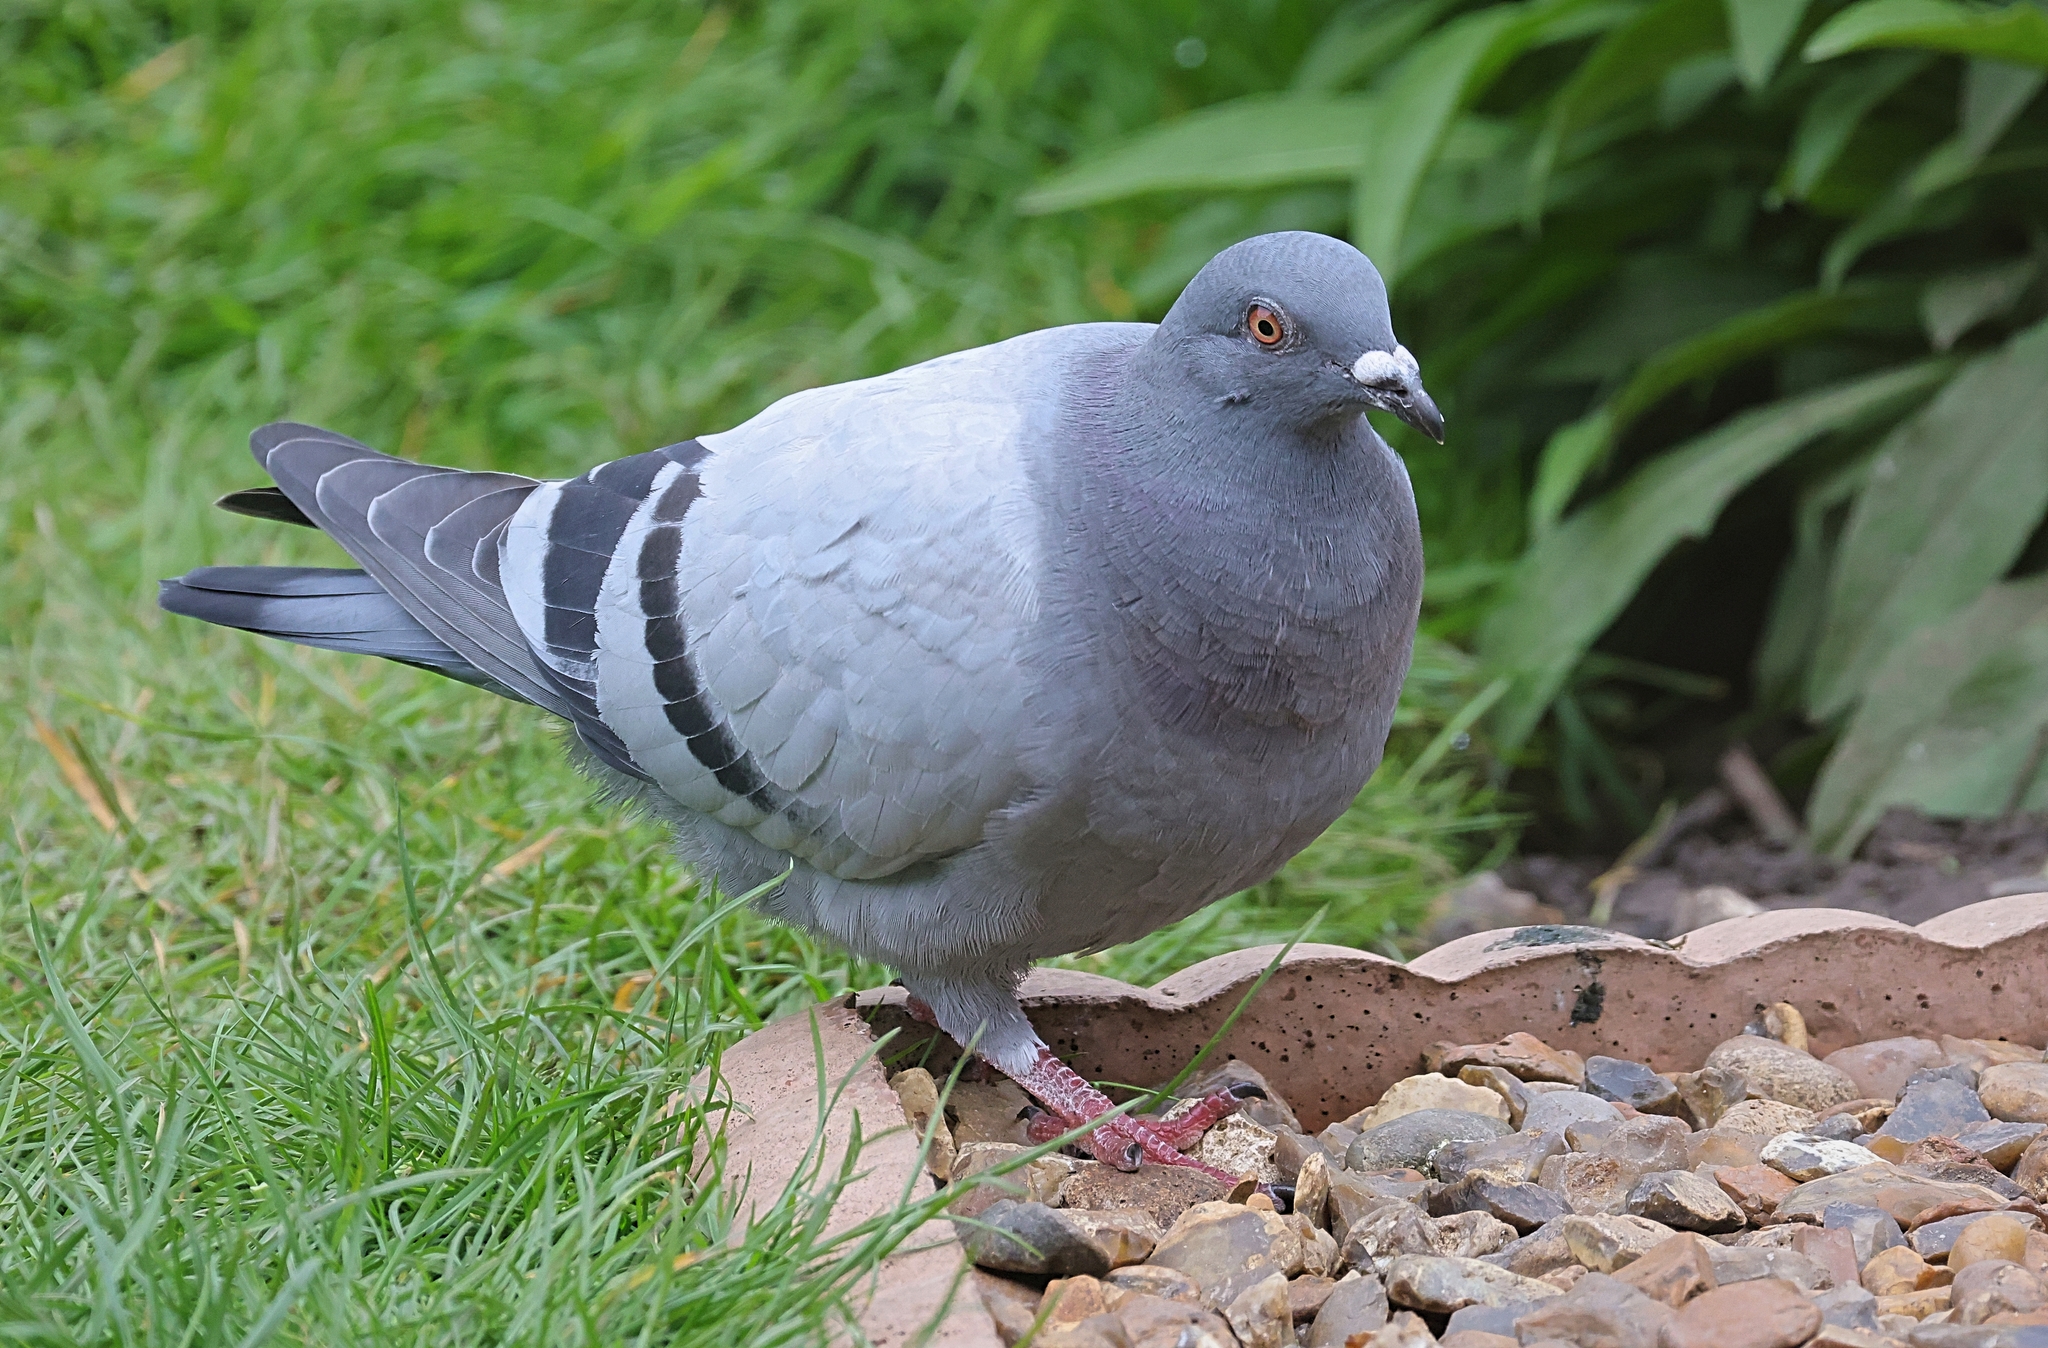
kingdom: Animalia
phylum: Chordata
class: Aves
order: Columbiformes
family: Columbidae
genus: Columba
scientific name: Columba livia
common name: Rock pigeon
